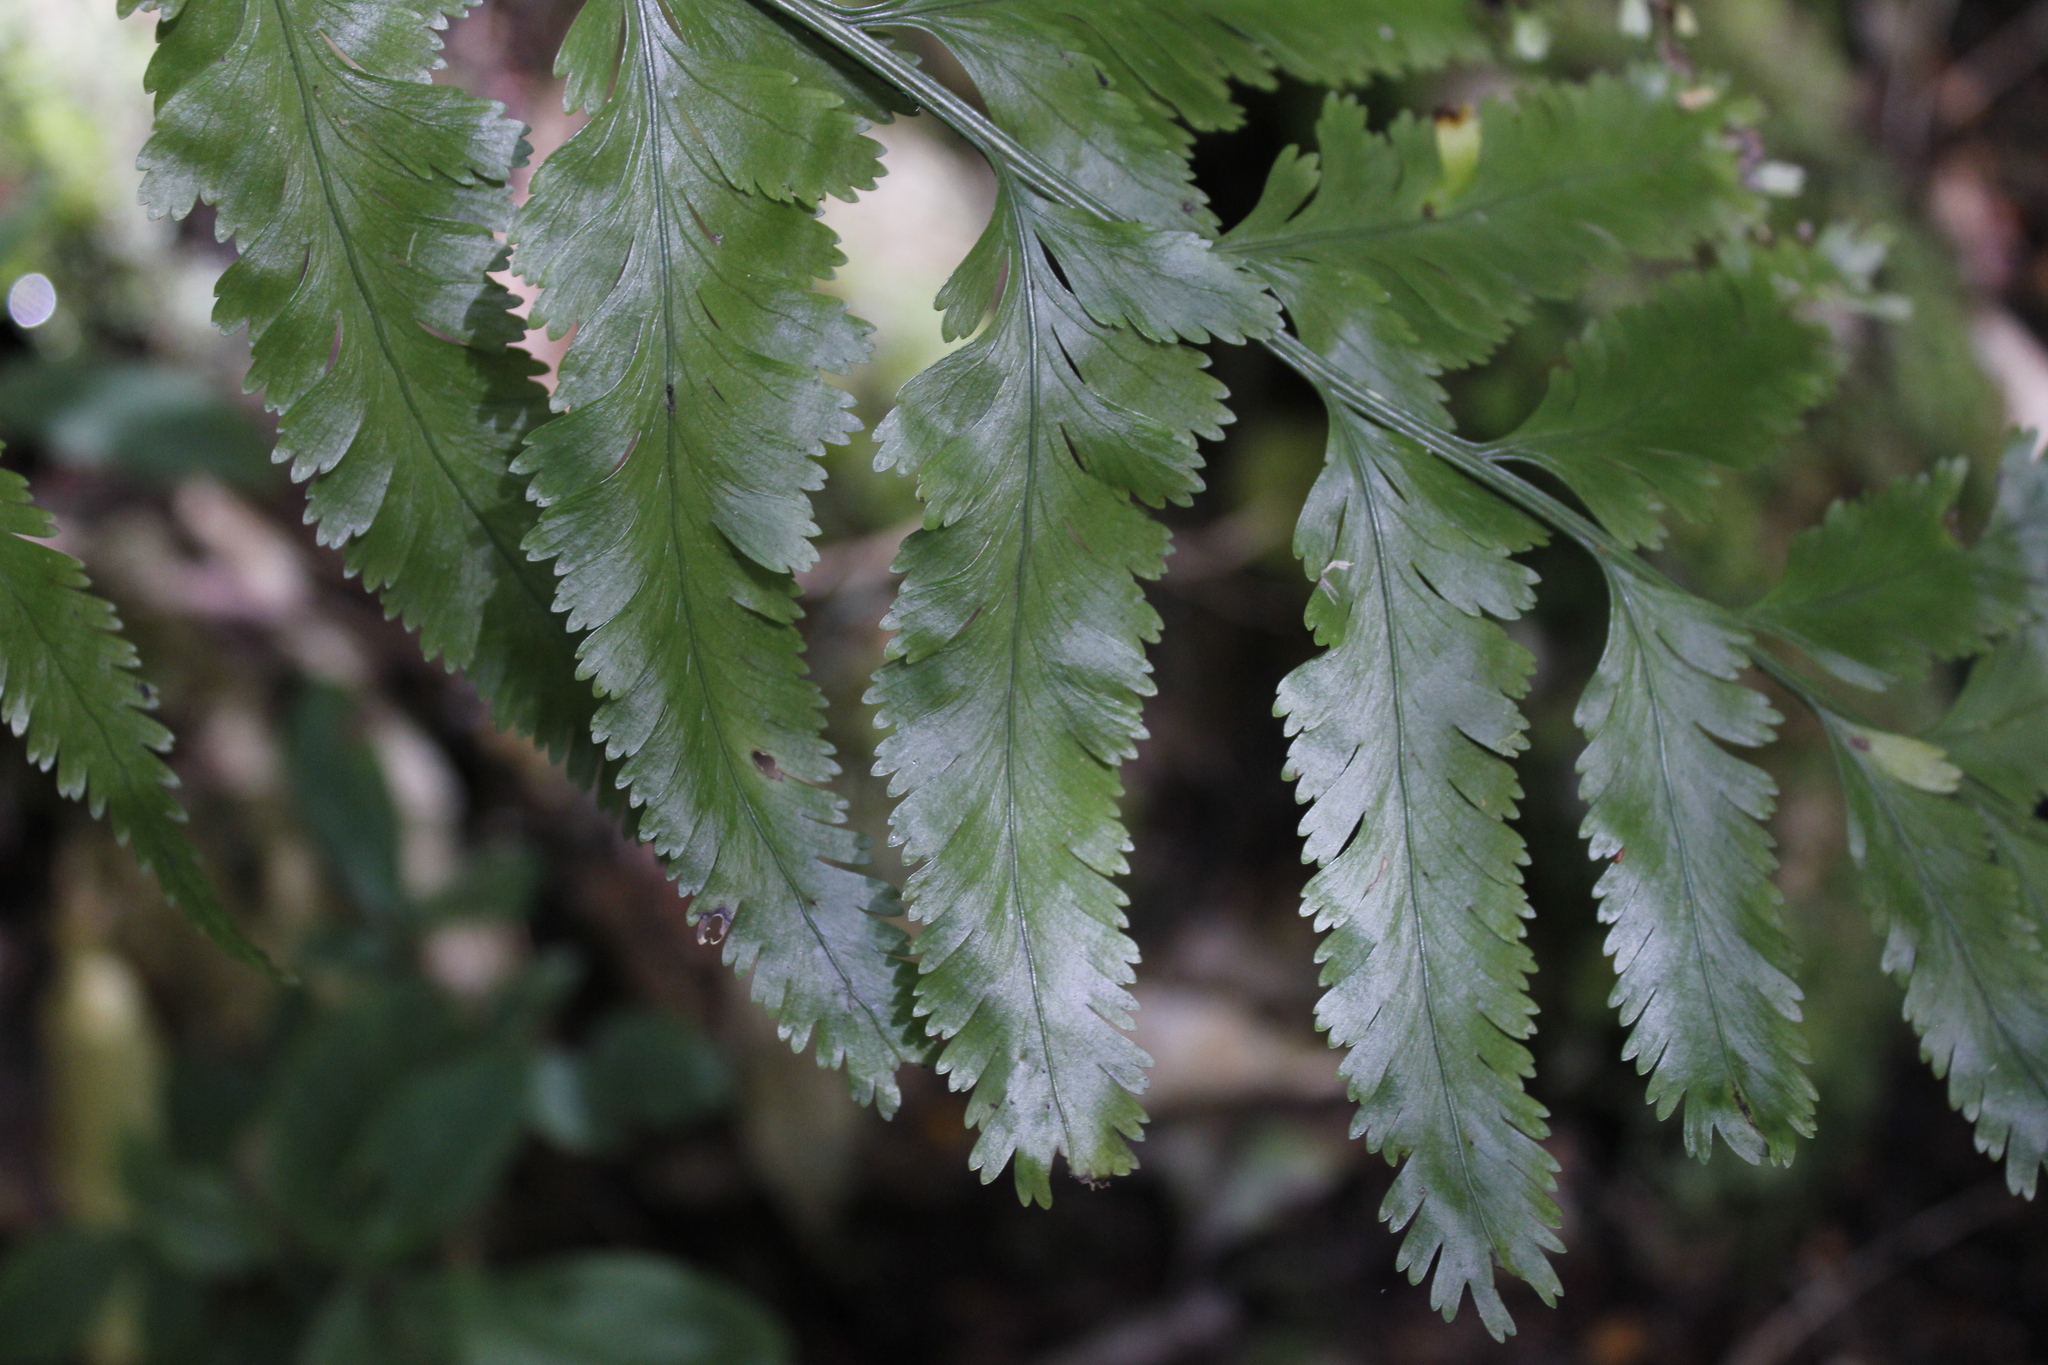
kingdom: Plantae
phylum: Tracheophyta
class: Polypodiopsida
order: Polypodiales
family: Aspleniaceae
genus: Asplenium
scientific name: Asplenium
